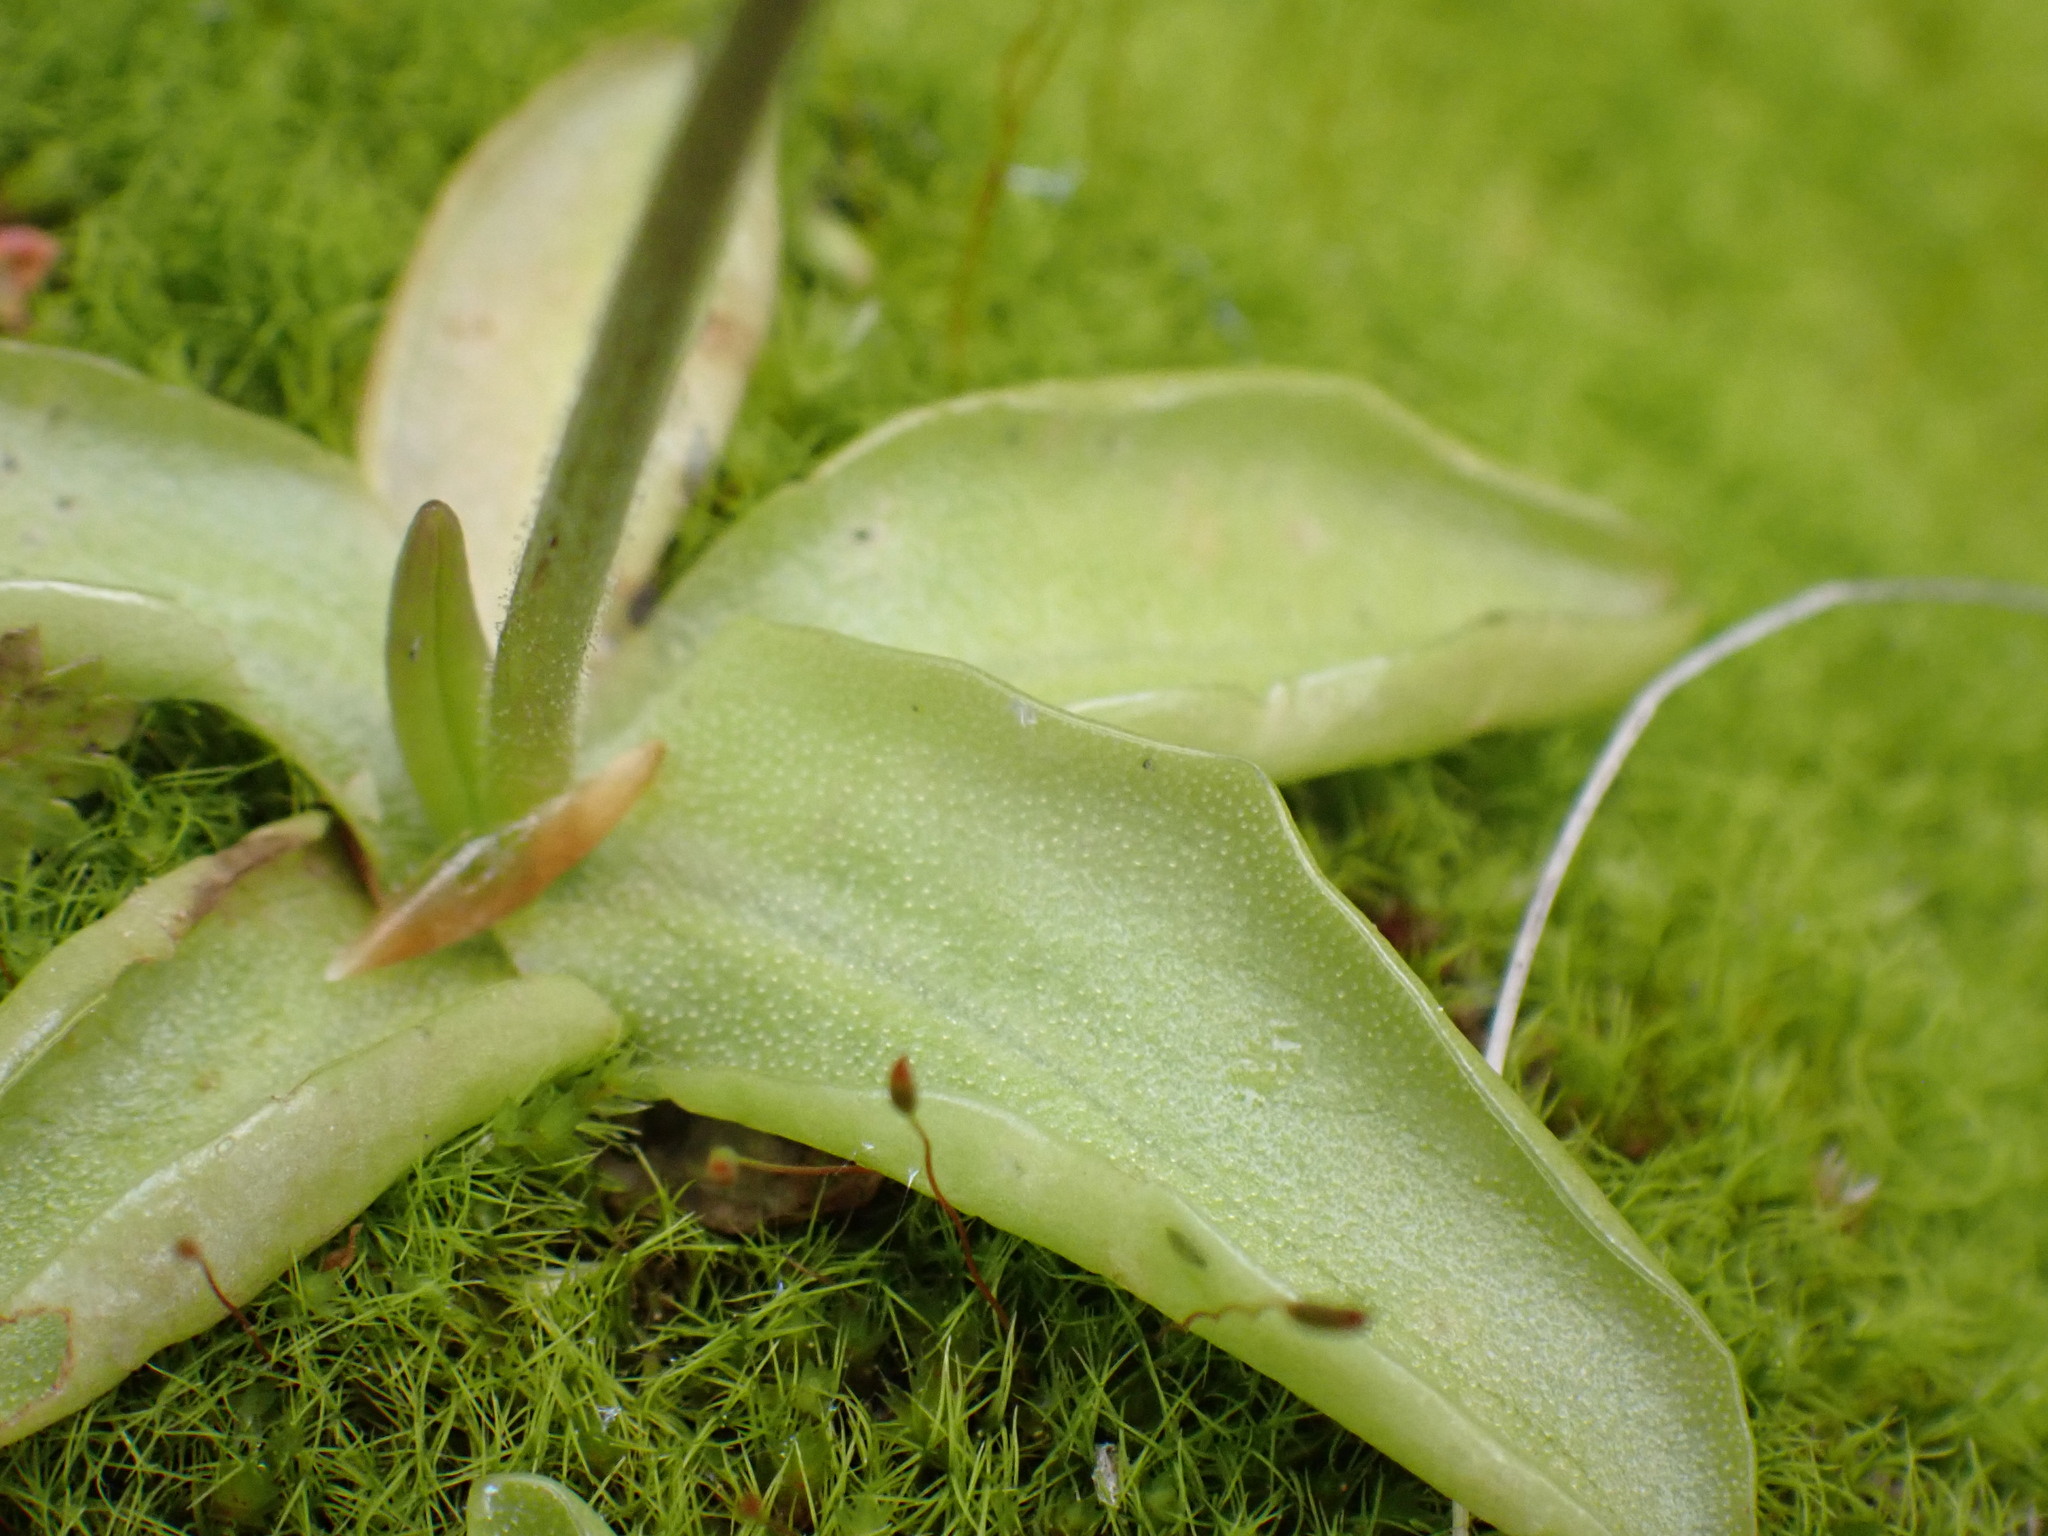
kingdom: Plantae
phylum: Tracheophyta
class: Magnoliopsida
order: Lamiales
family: Lentibulariaceae
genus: Pinguicula
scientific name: Pinguicula macroceras
